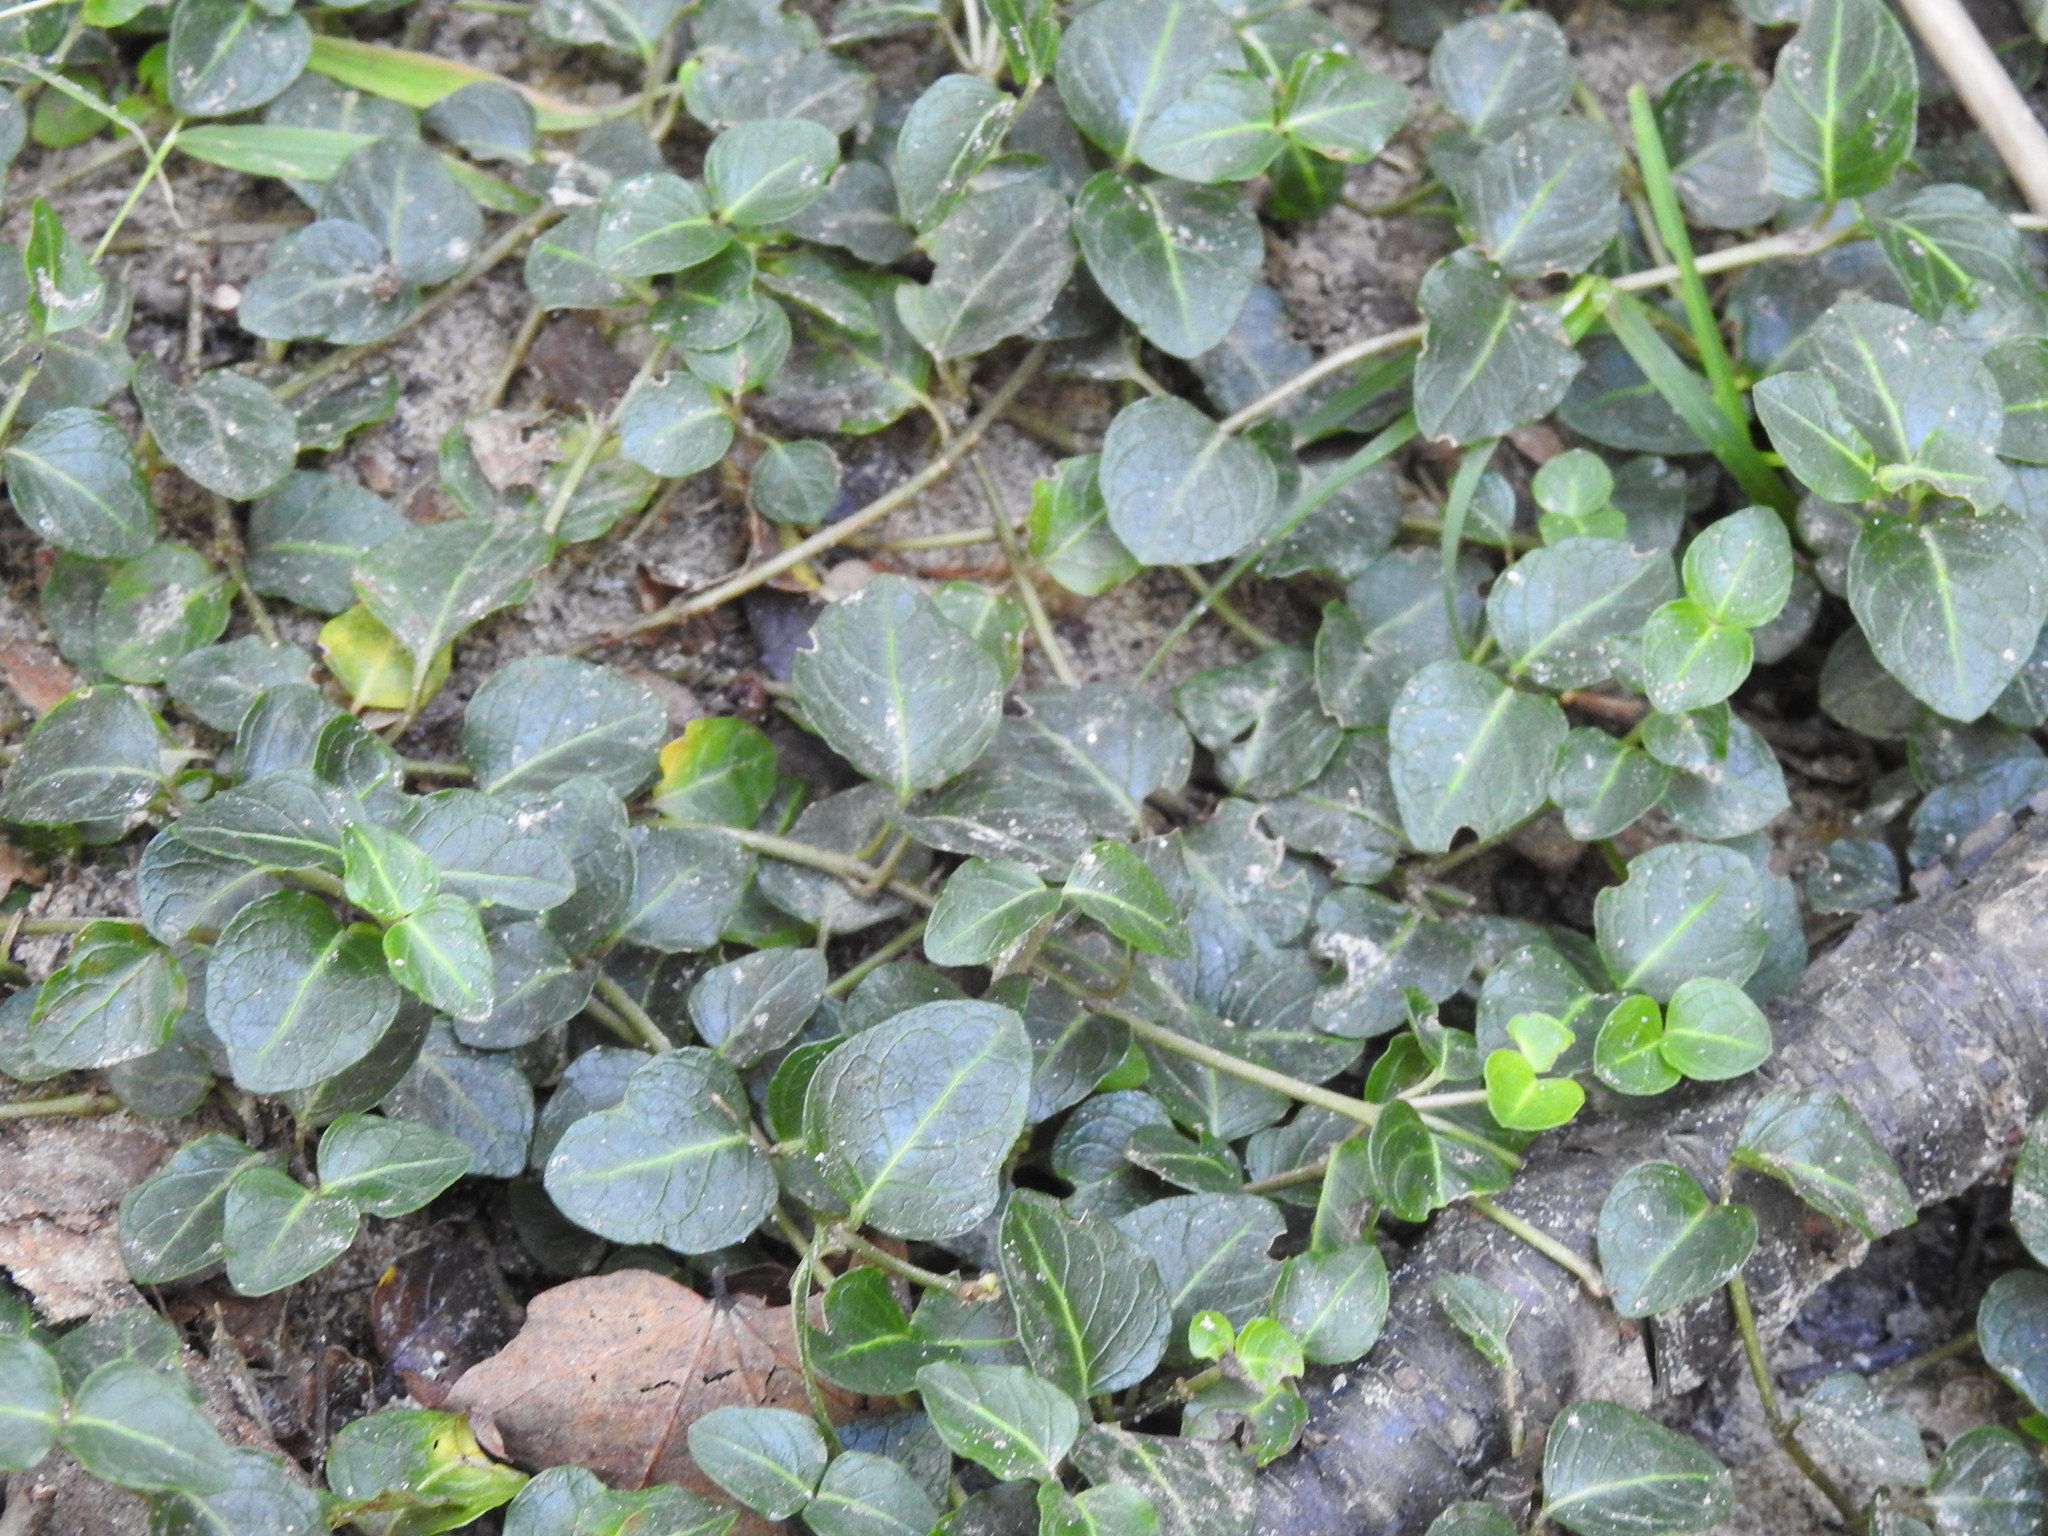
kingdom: Plantae
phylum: Tracheophyta
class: Magnoliopsida
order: Gentianales
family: Rubiaceae
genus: Mitchella
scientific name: Mitchella repens
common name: Partridge-berry
